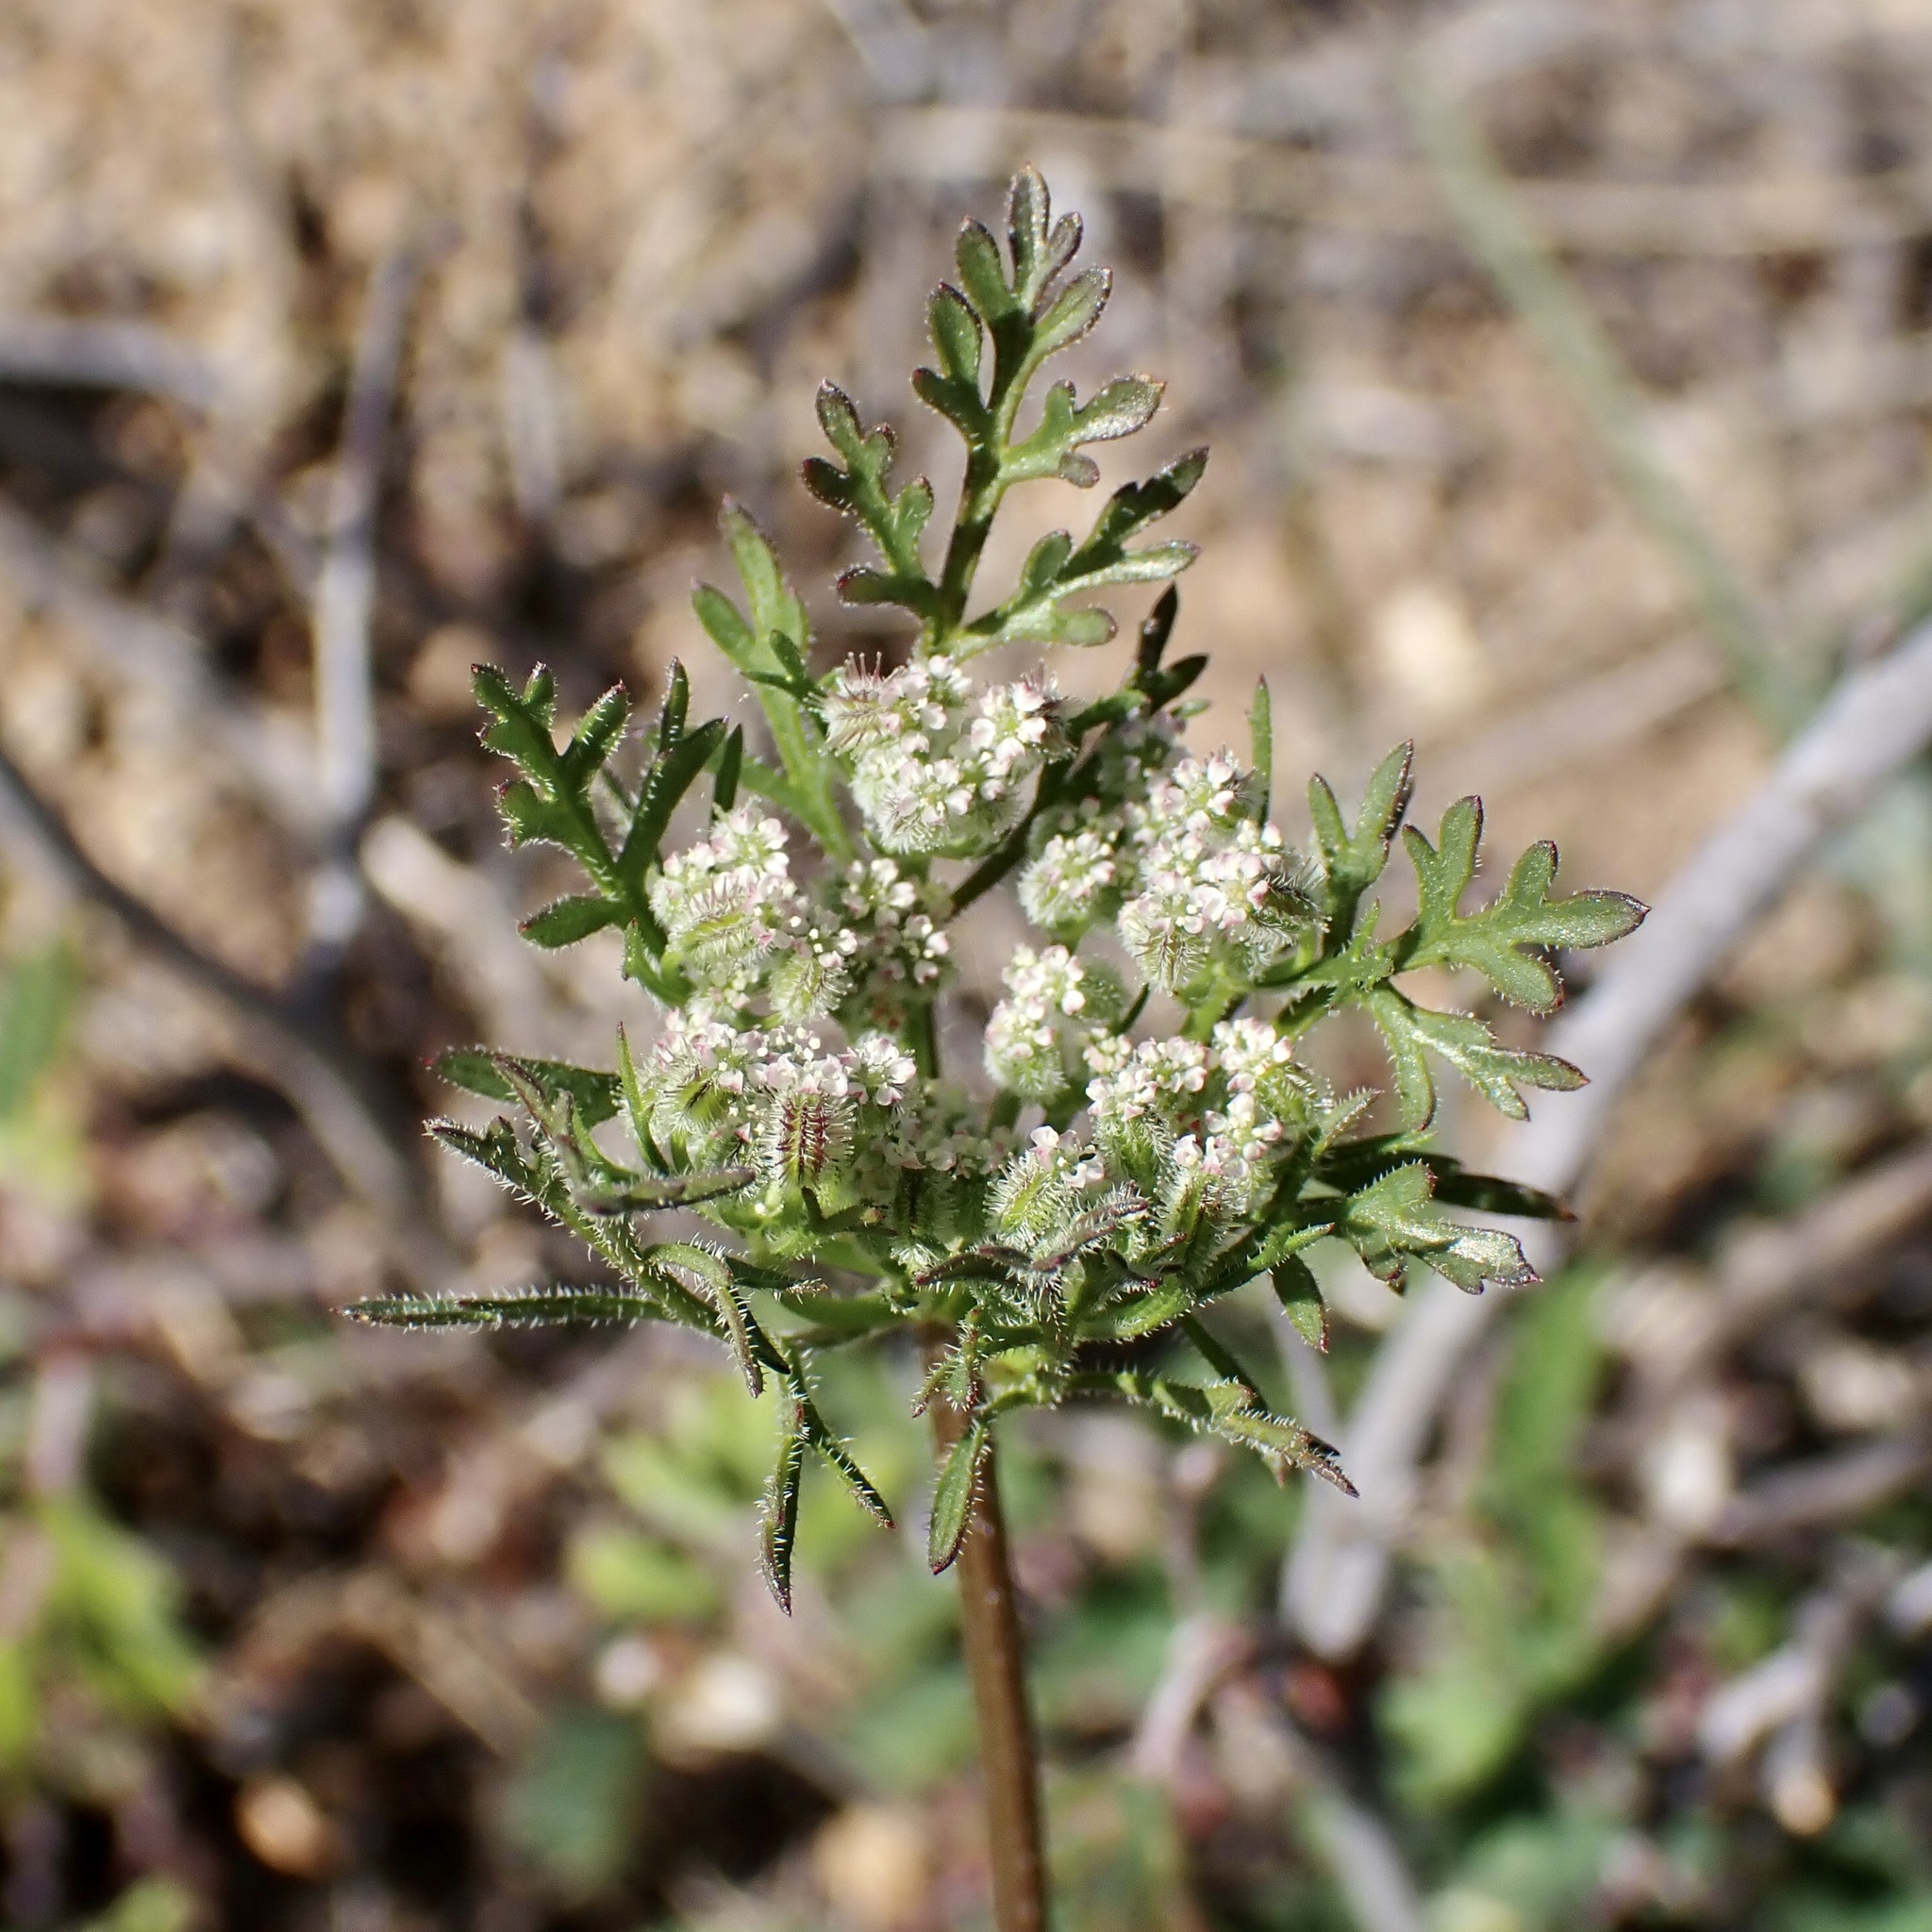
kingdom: Plantae
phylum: Tracheophyta
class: Magnoliopsida
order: Apiales
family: Apiaceae
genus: Daucus
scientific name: Daucus pusillus
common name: Southwest wild carrot
